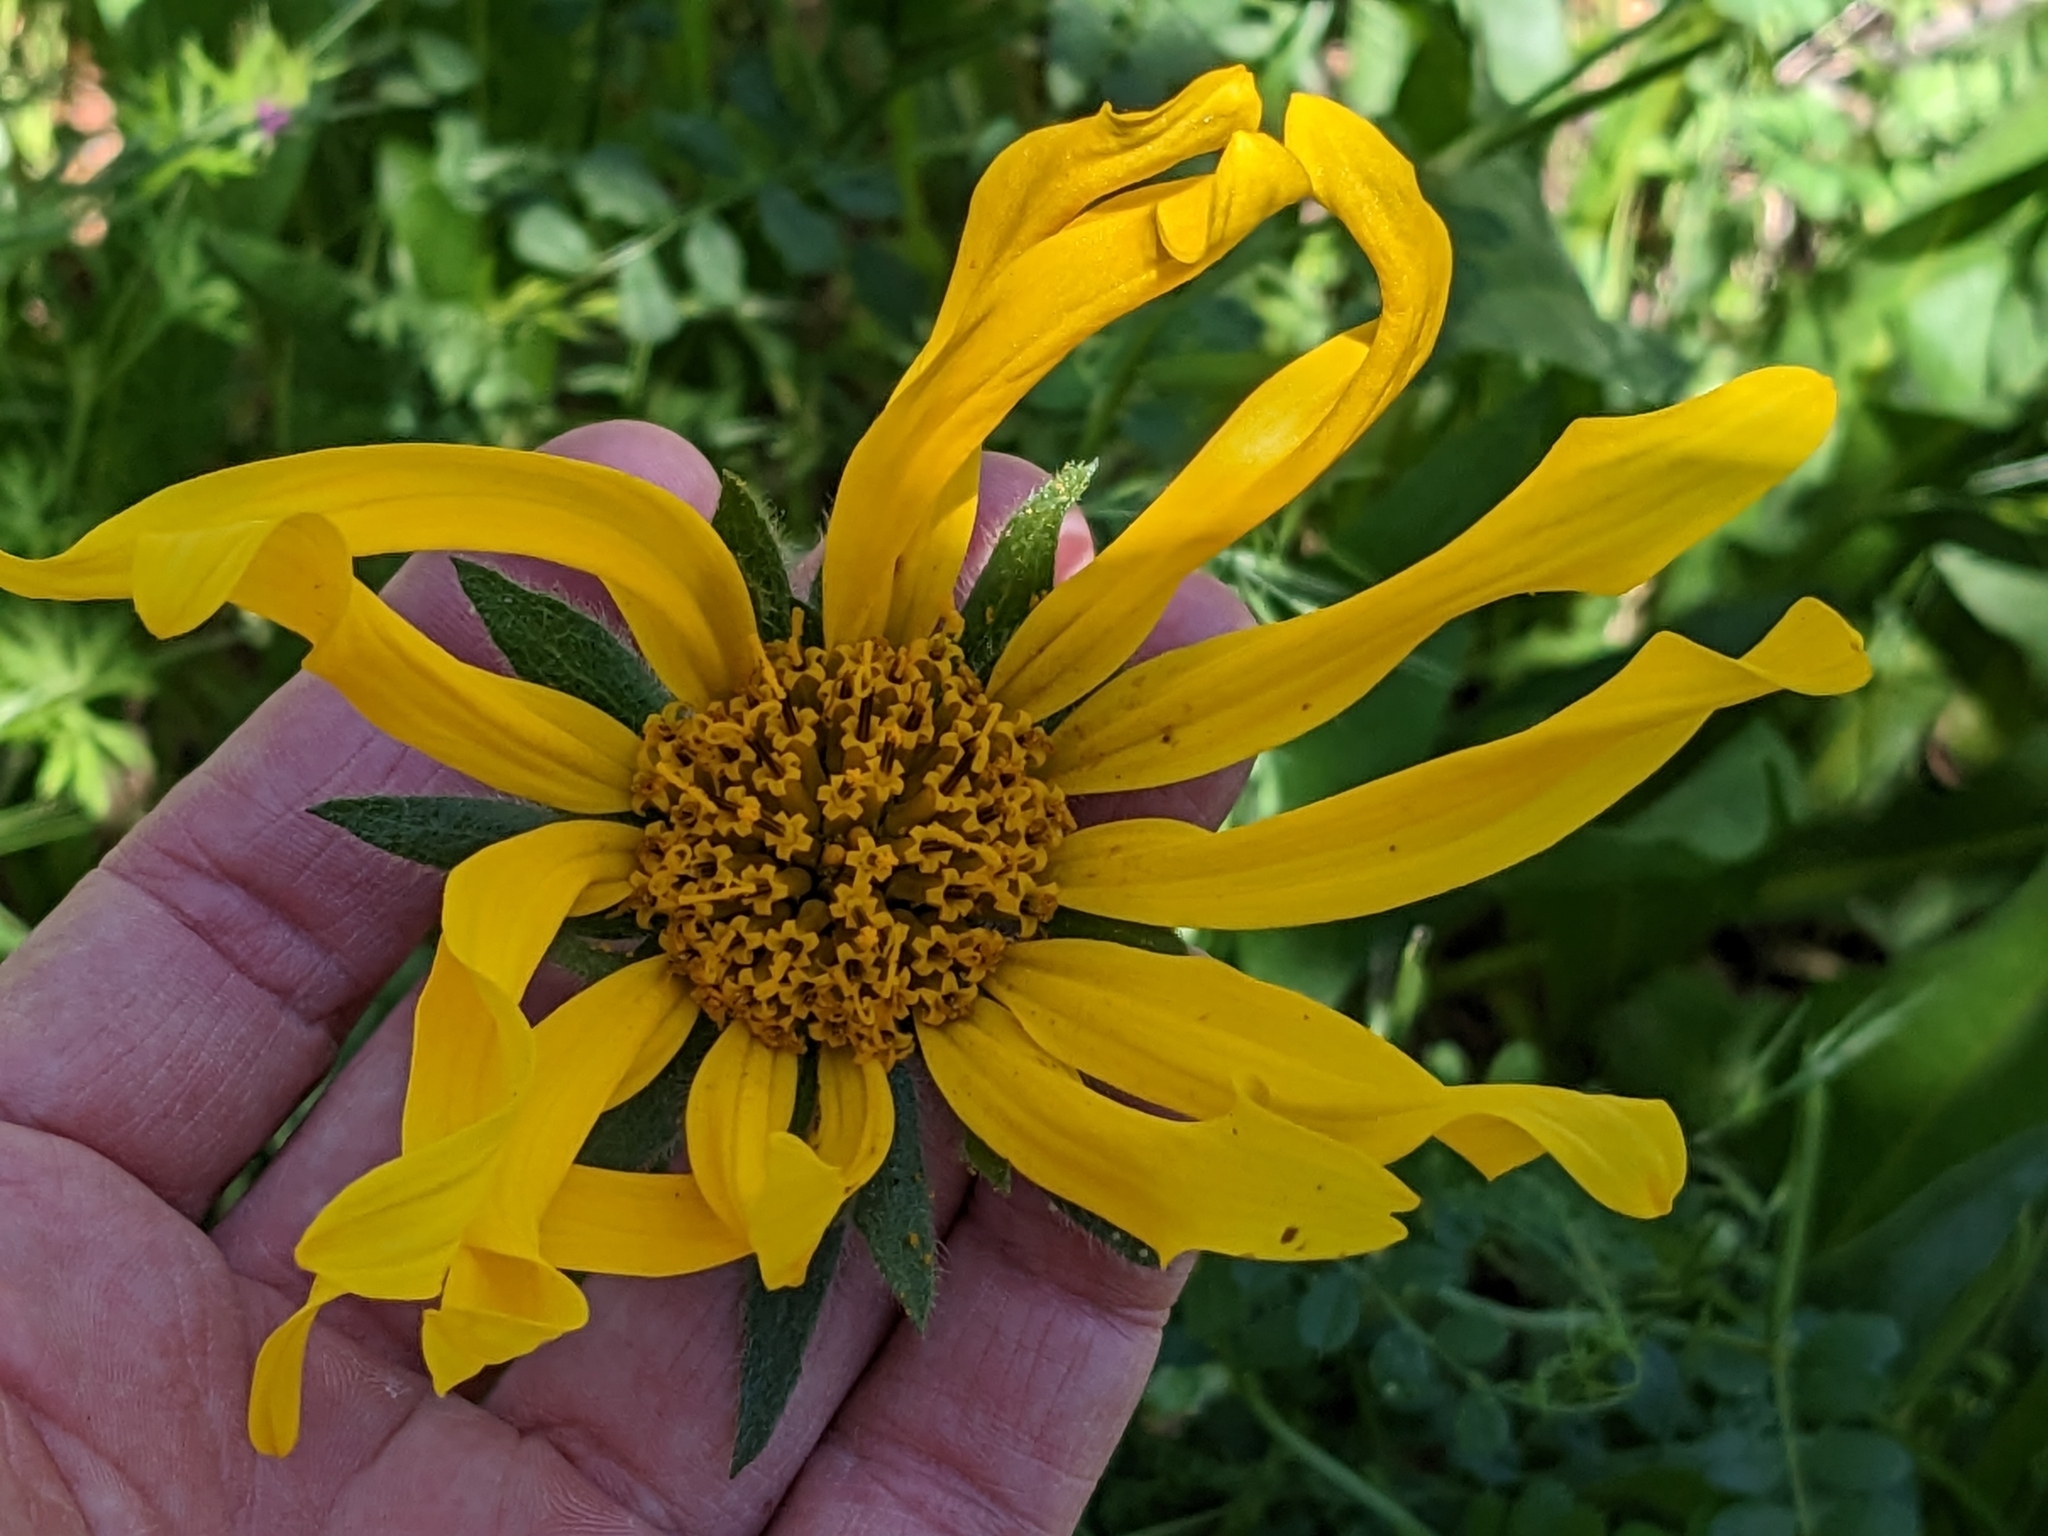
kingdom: Plantae
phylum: Tracheophyta
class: Magnoliopsida
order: Asterales
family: Asteraceae
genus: Wyethia
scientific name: Wyethia angustifolia
